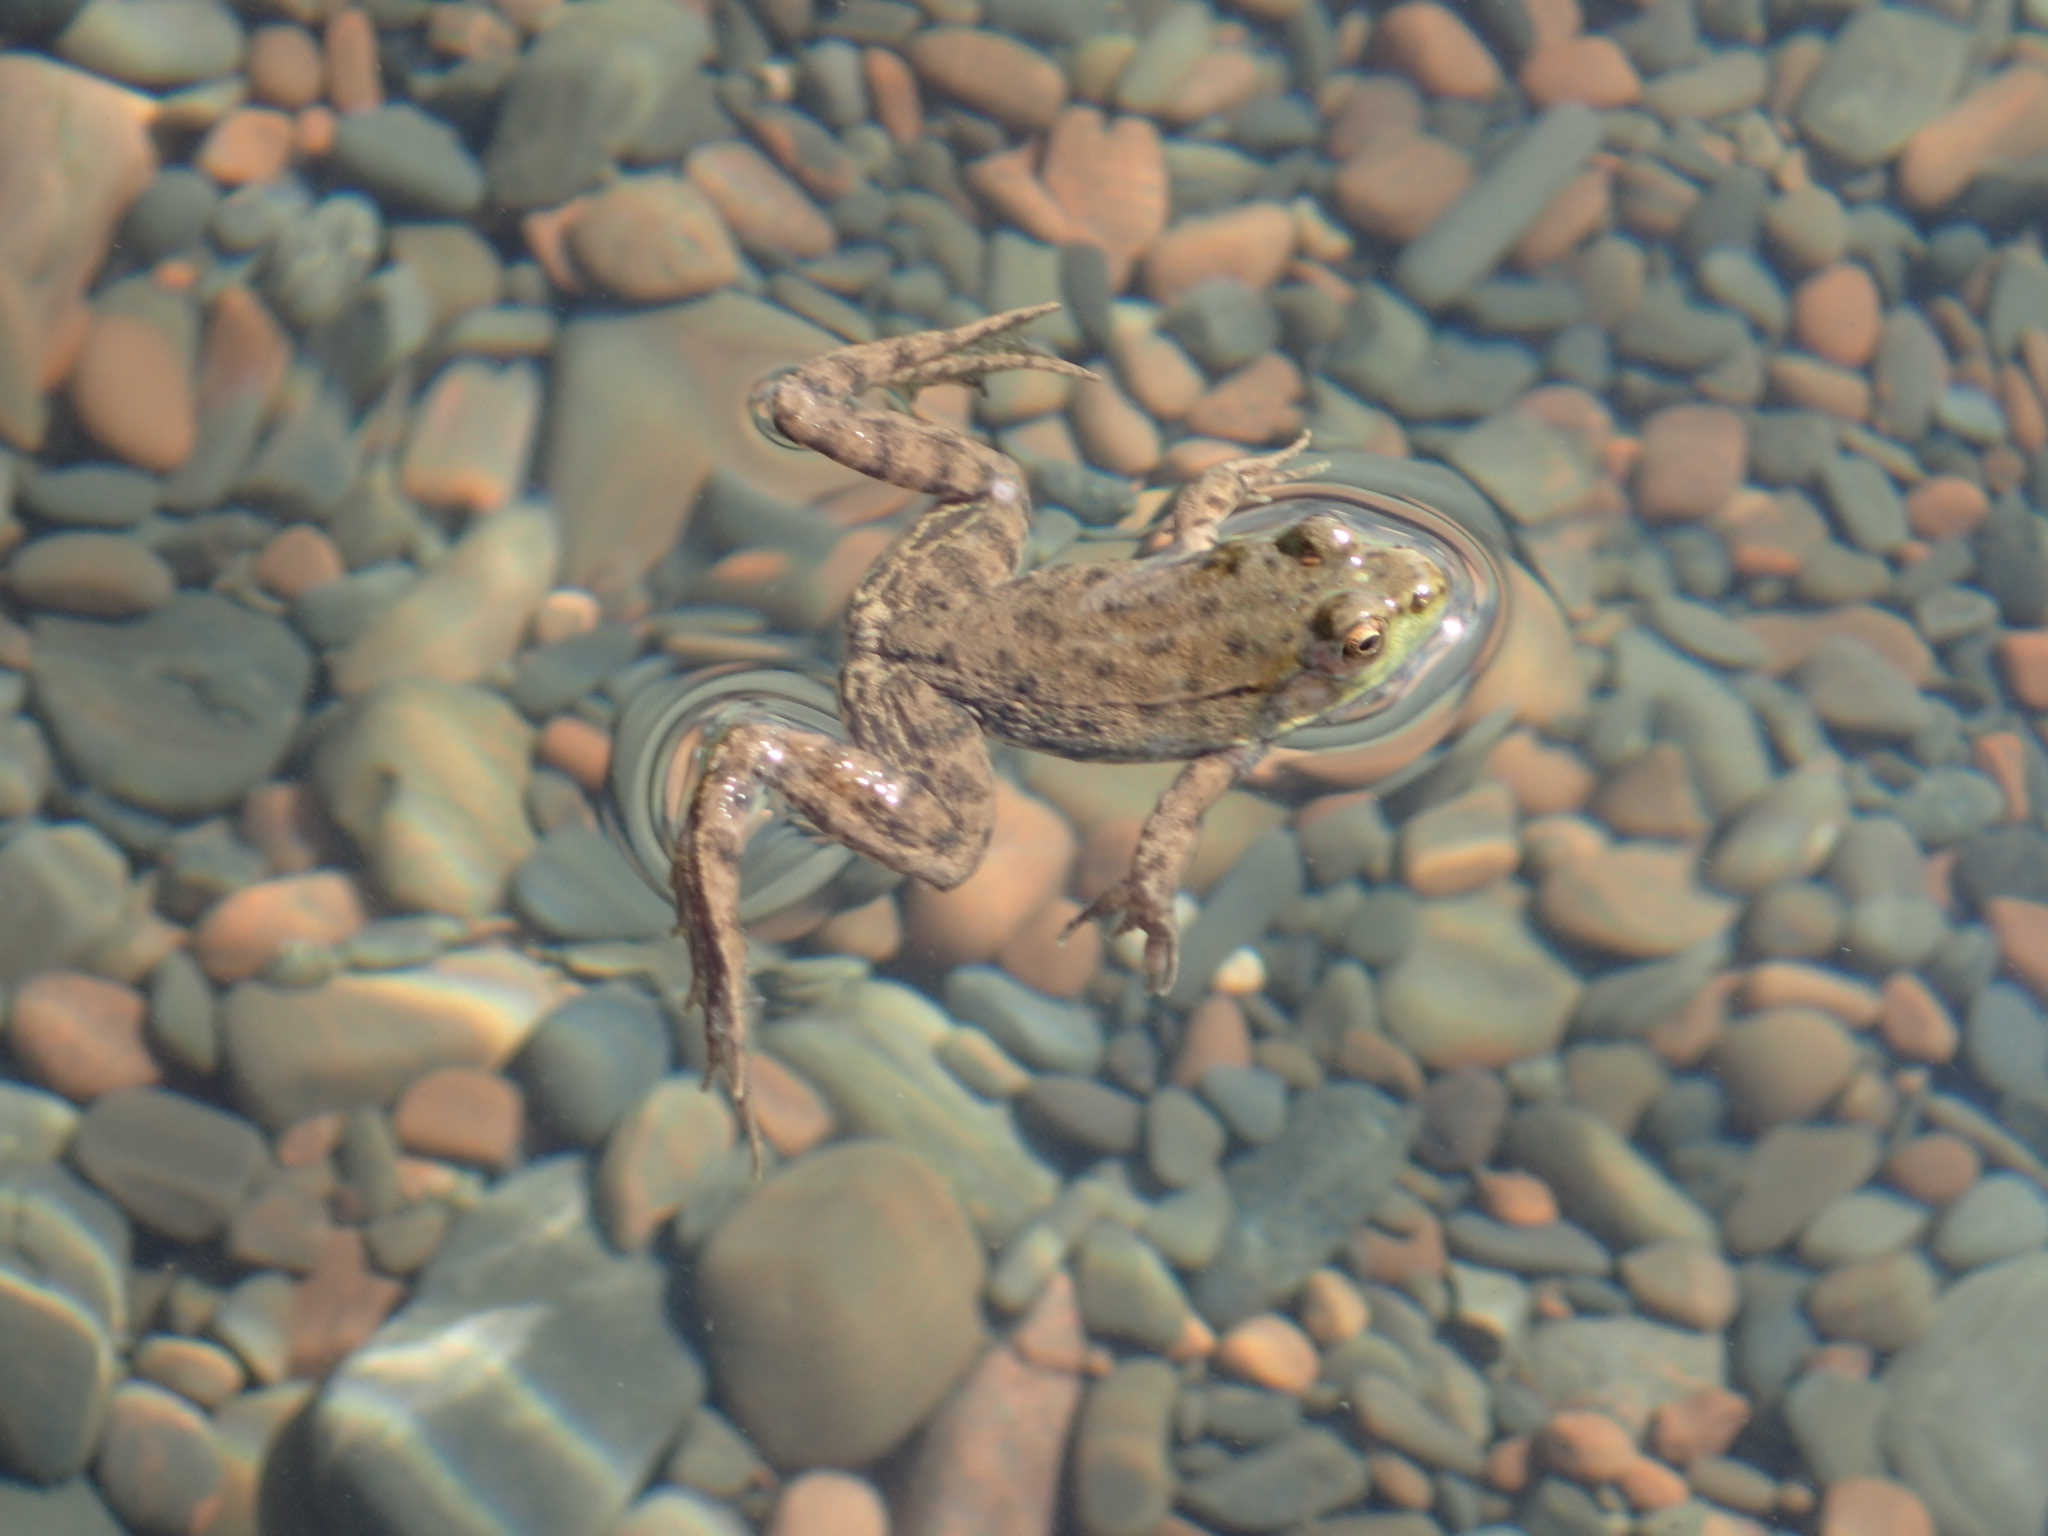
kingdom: Animalia
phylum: Chordata
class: Amphibia
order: Anura
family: Ranidae
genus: Lithobates
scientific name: Lithobates clamitans
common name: Green frog
